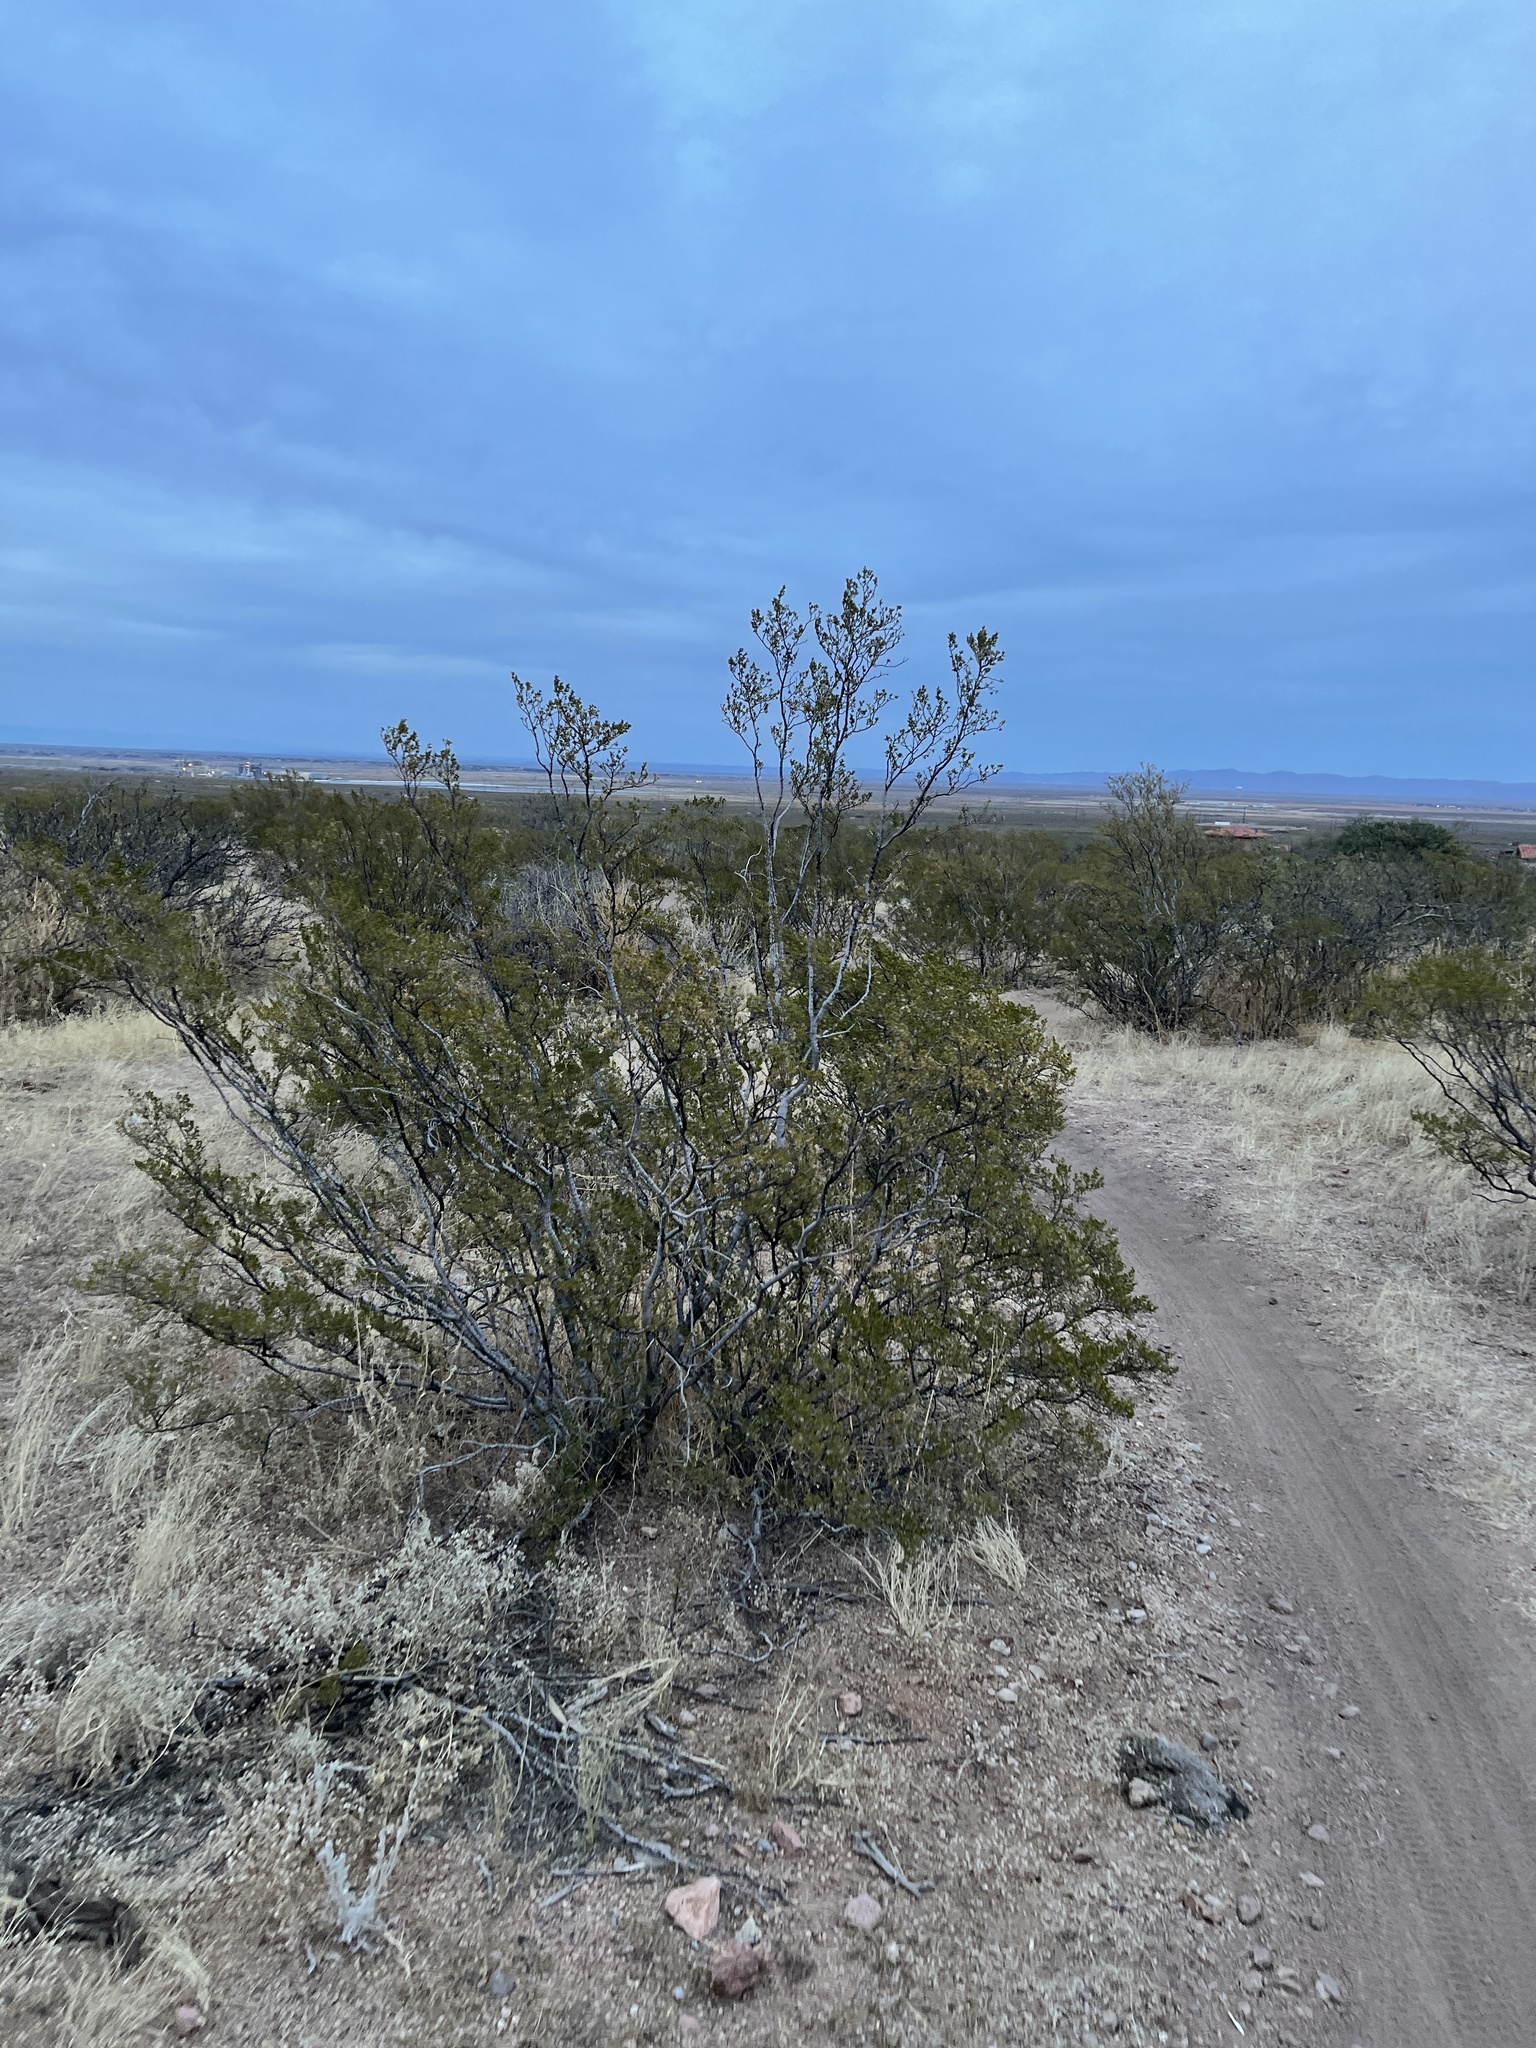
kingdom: Plantae
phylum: Tracheophyta
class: Magnoliopsida
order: Zygophyllales
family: Zygophyllaceae
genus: Larrea
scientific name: Larrea tridentata
